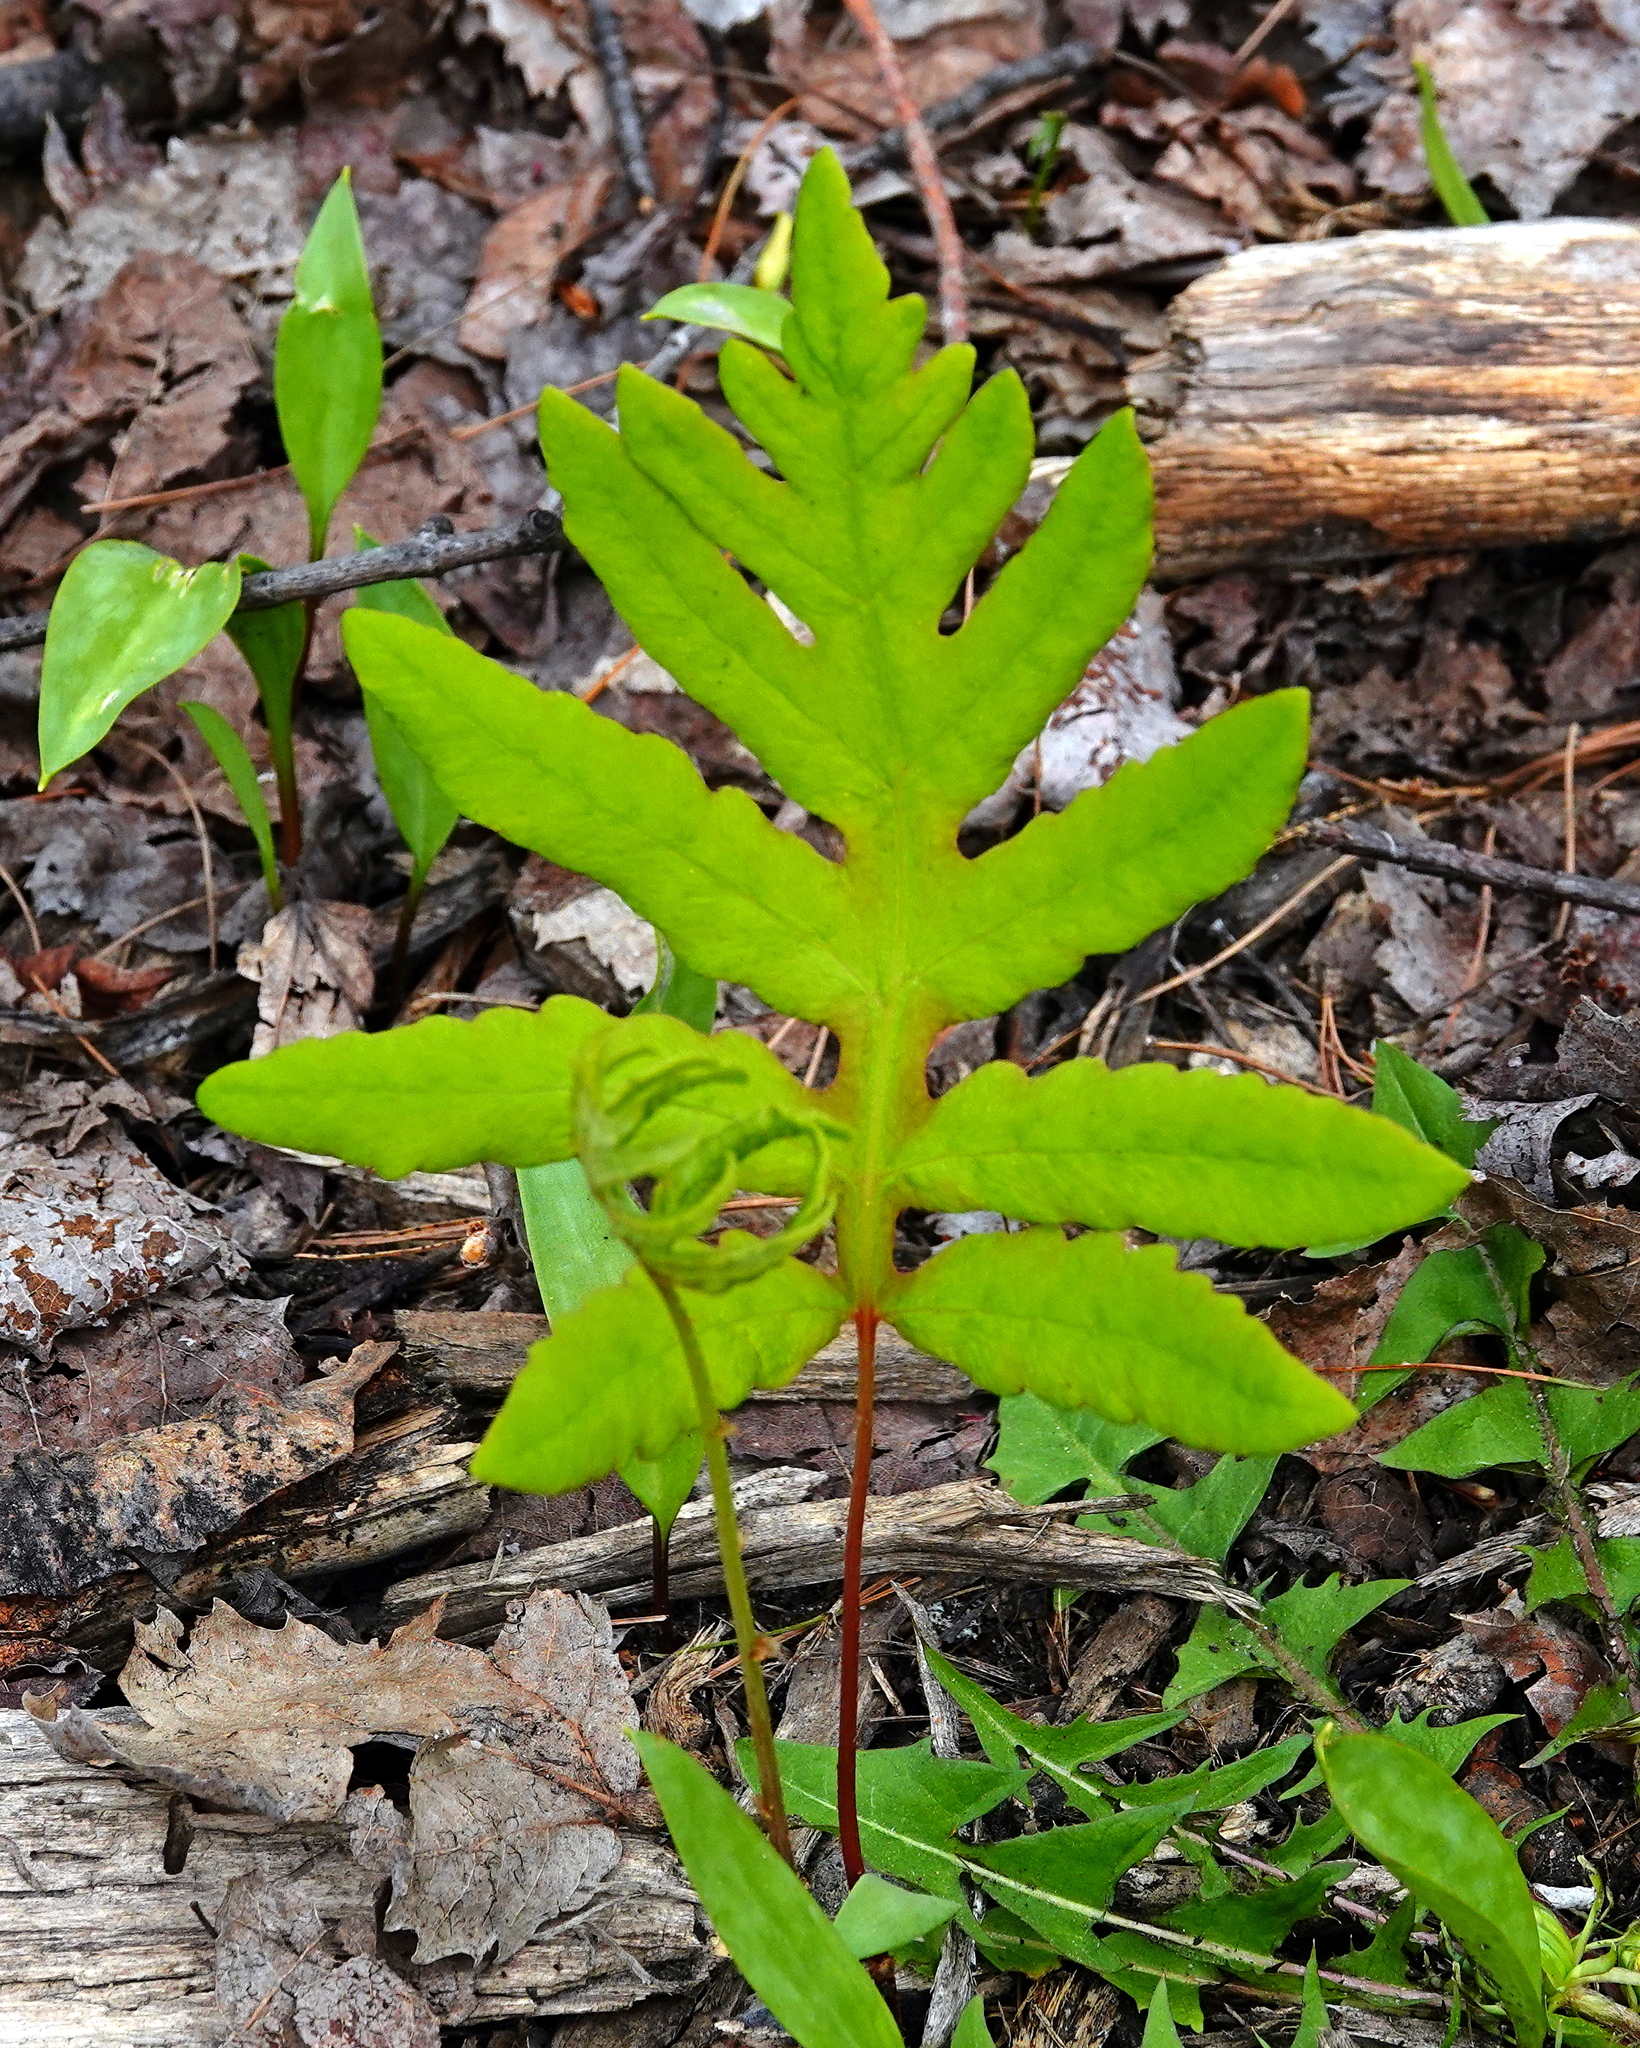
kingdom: Plantae
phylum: Tracheophyta
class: Polypodiopsida
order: Polypodiales
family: Onocleaceae
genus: Onoclea
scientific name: Onoclea sensibilis
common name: Sensitive fern
